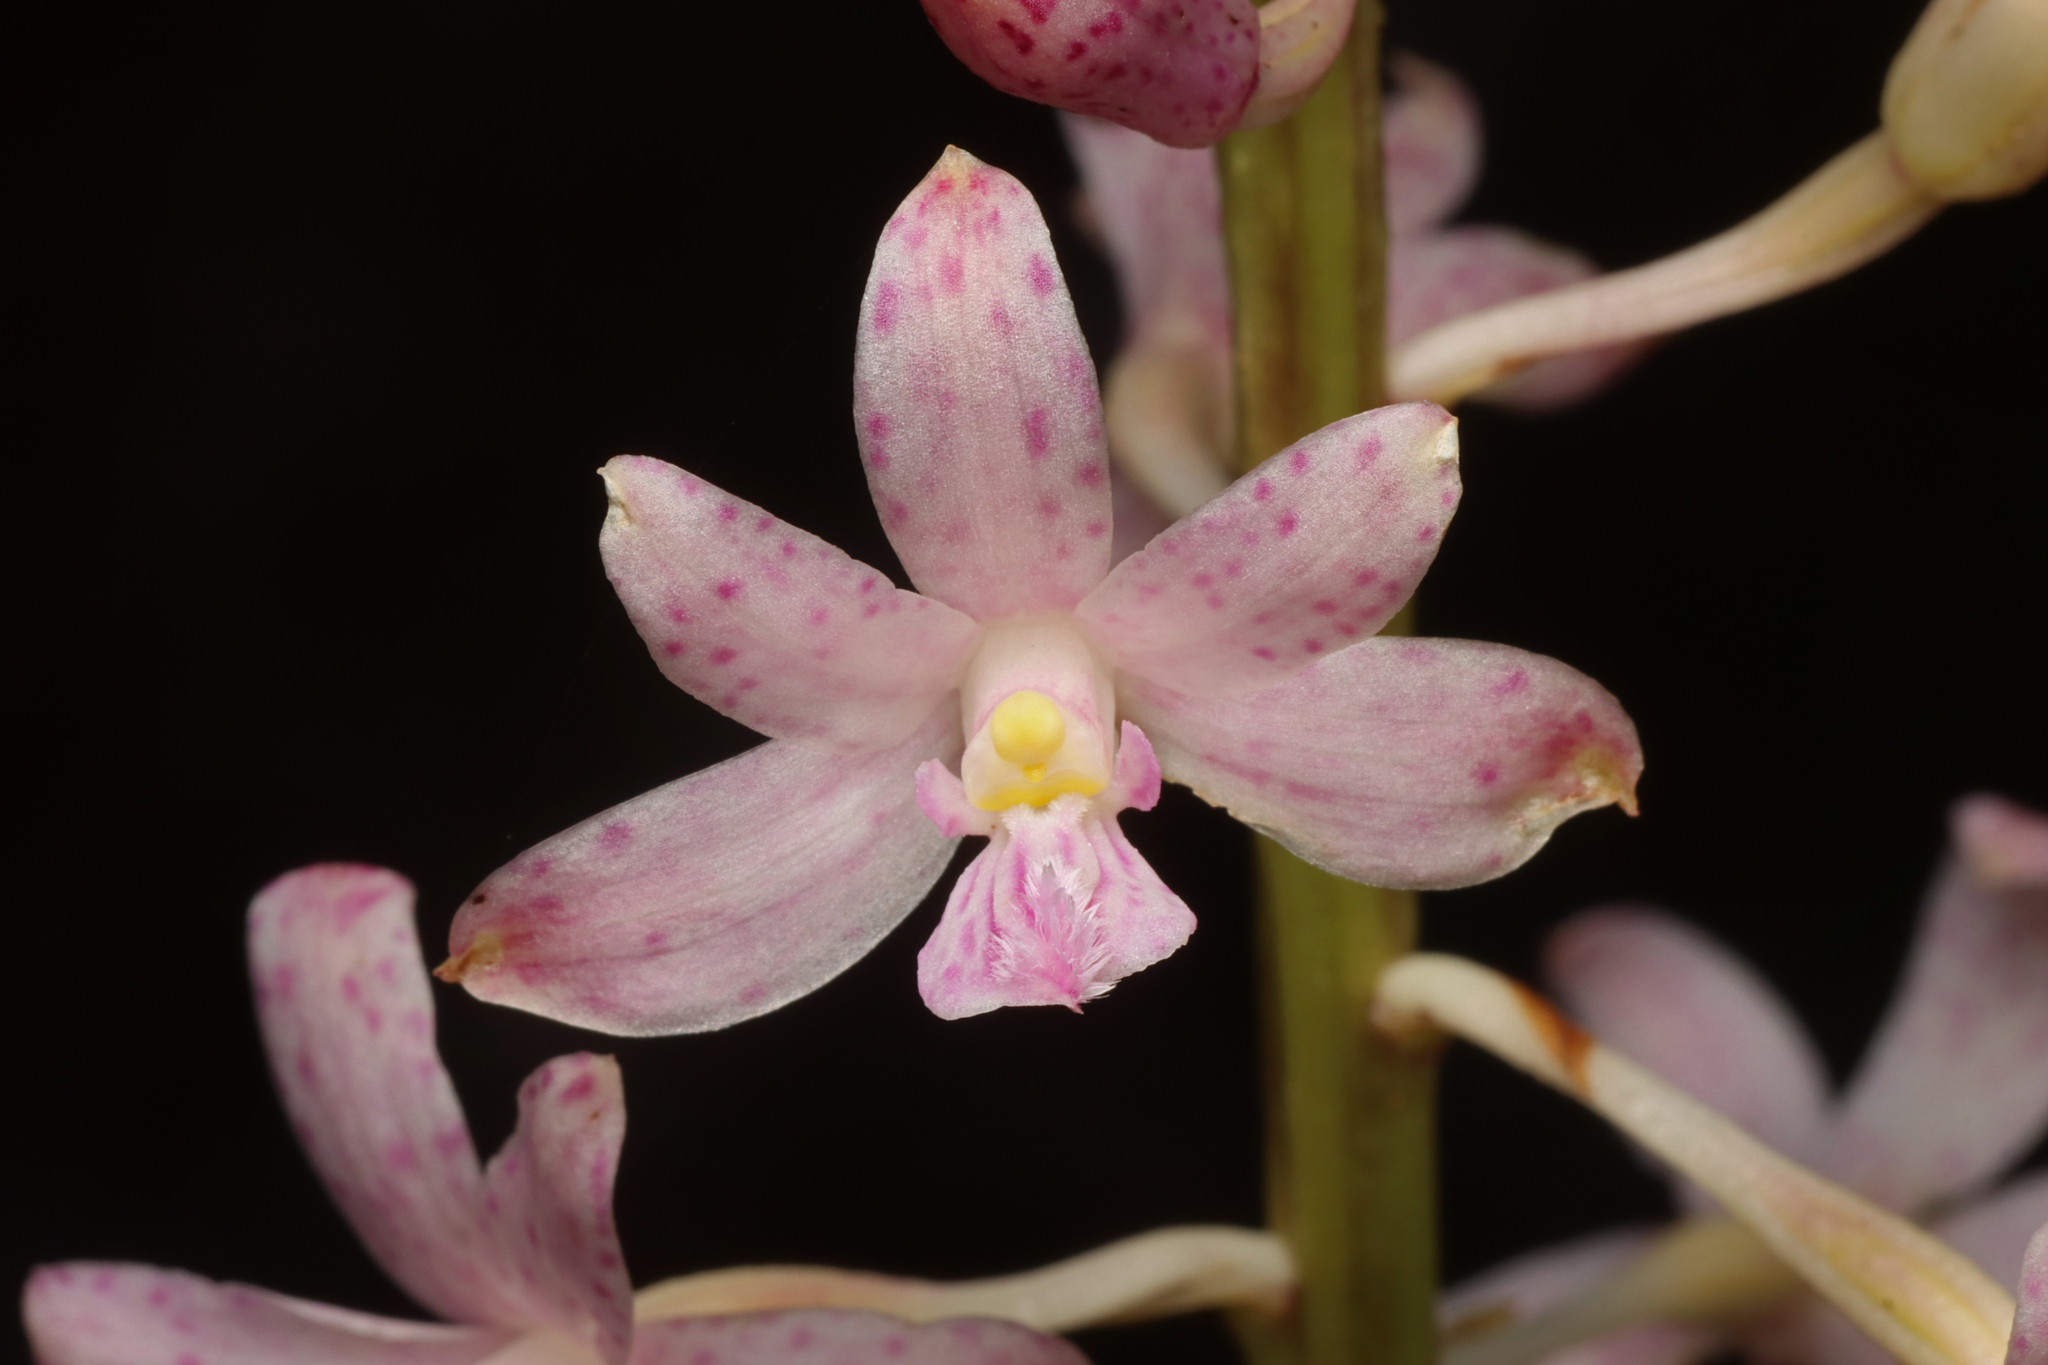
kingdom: Plantae
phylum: Tracheophyta
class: Liliopsida
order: Asparagales
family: Orchidaceae
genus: Dipodium
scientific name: Dipodium roseum
